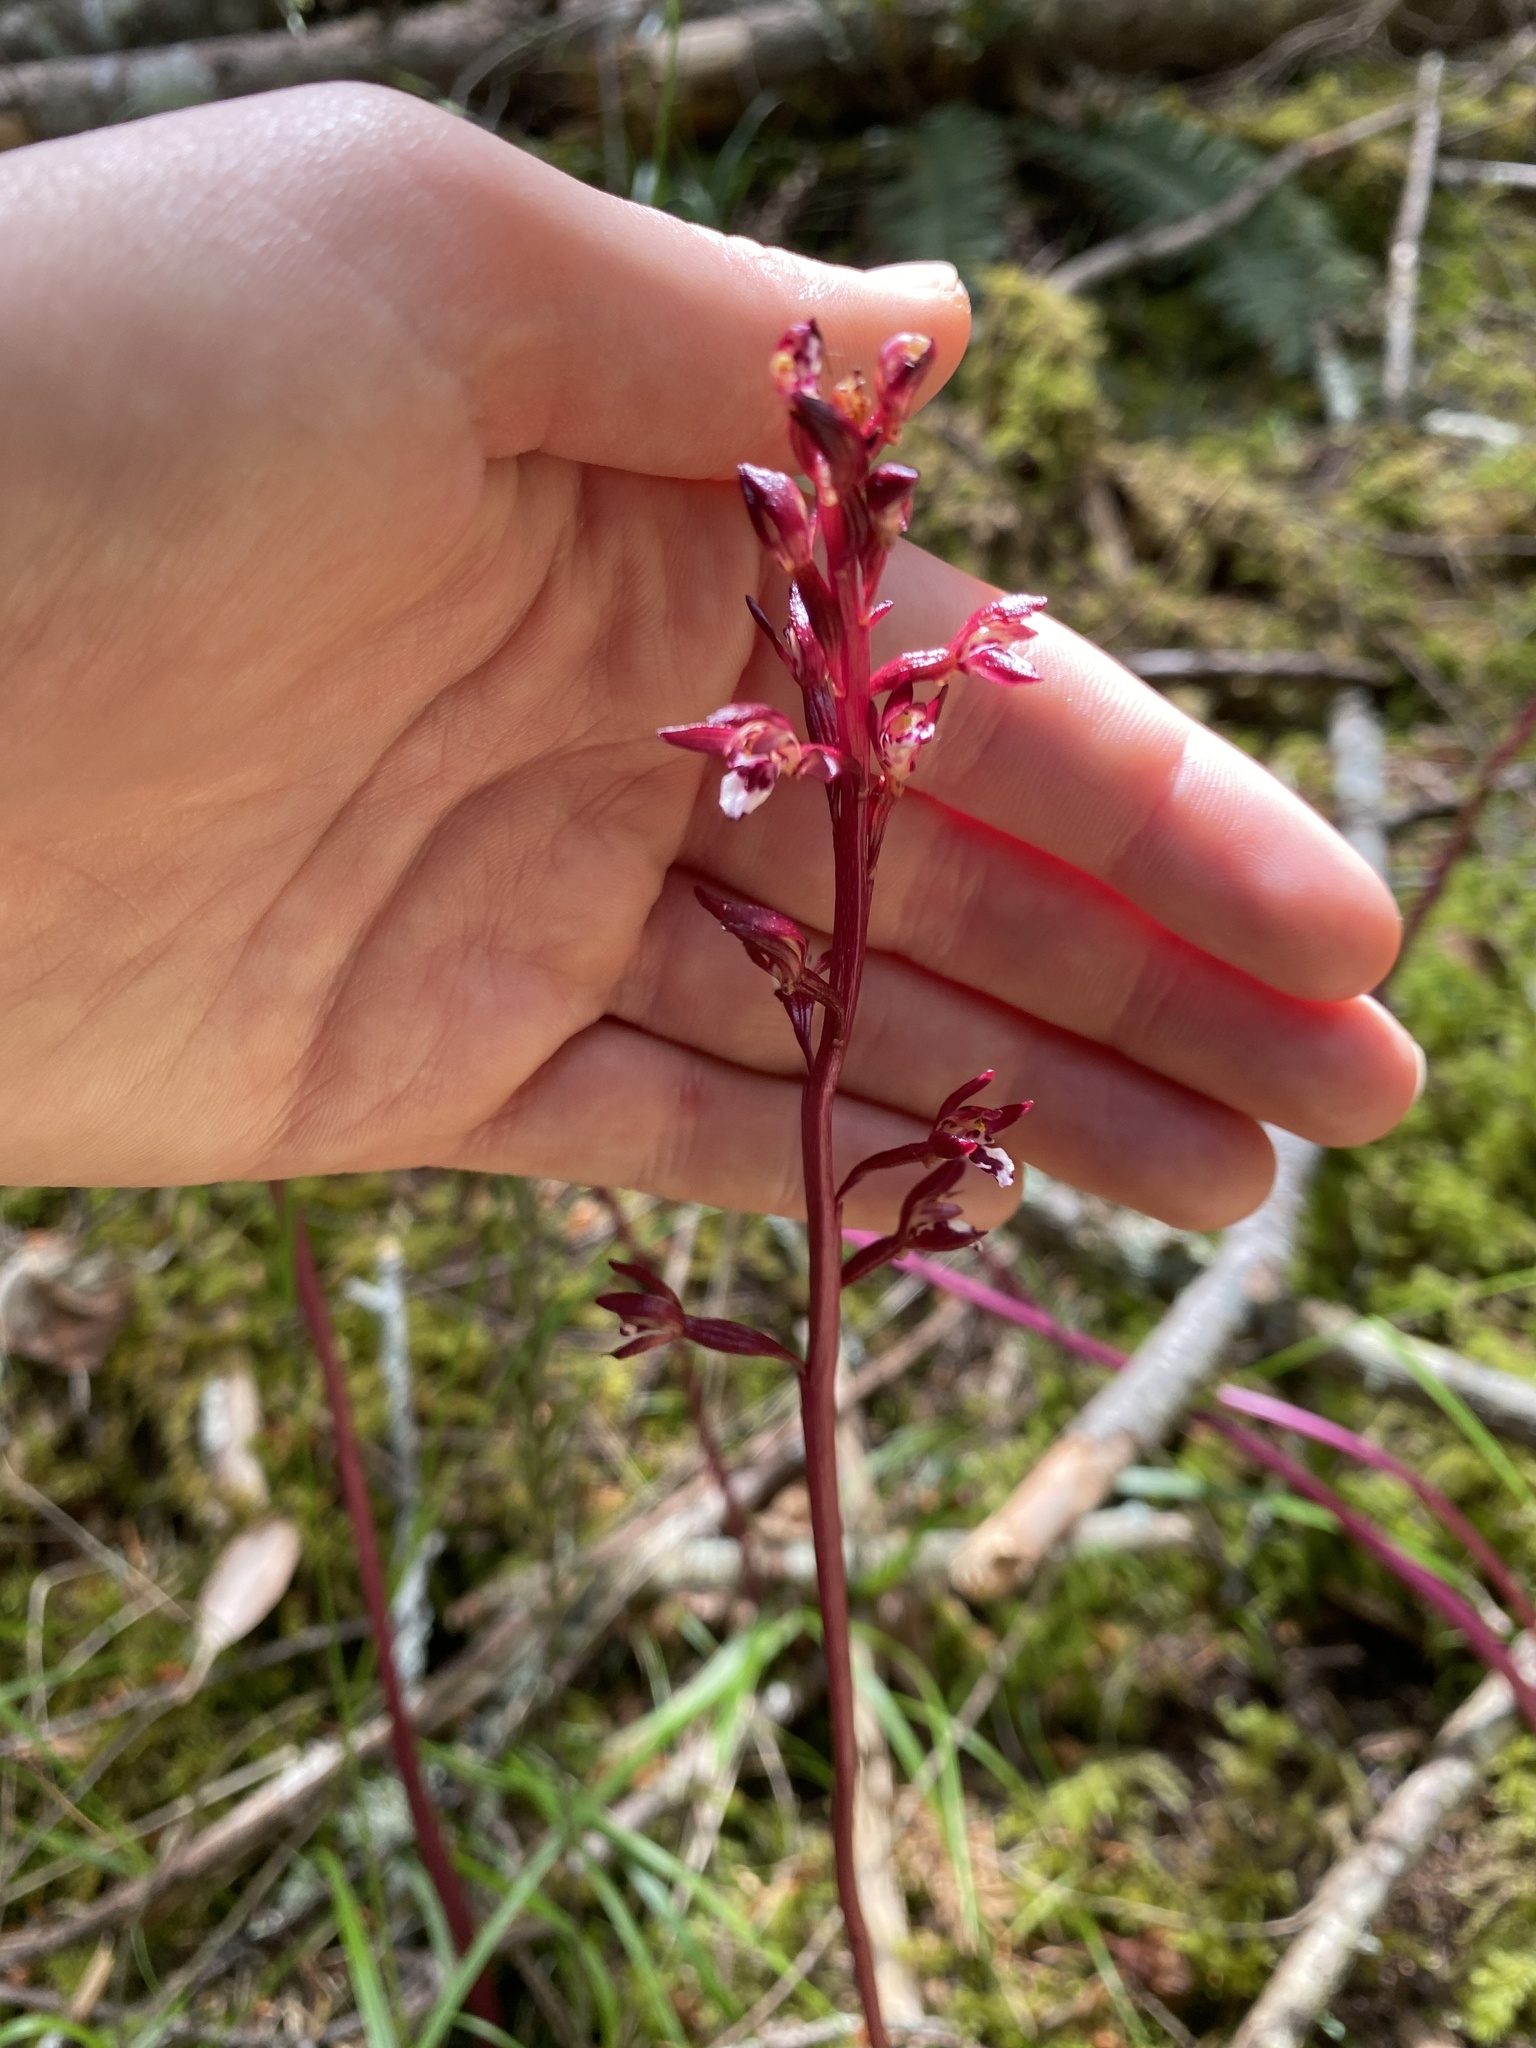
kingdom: Plantae
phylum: Tracheophyta
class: Liliopsida
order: Asparagales
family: Orchidaceae
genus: Corallorhiza
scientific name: Corallorhiza maculata
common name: Spotted coralroot
